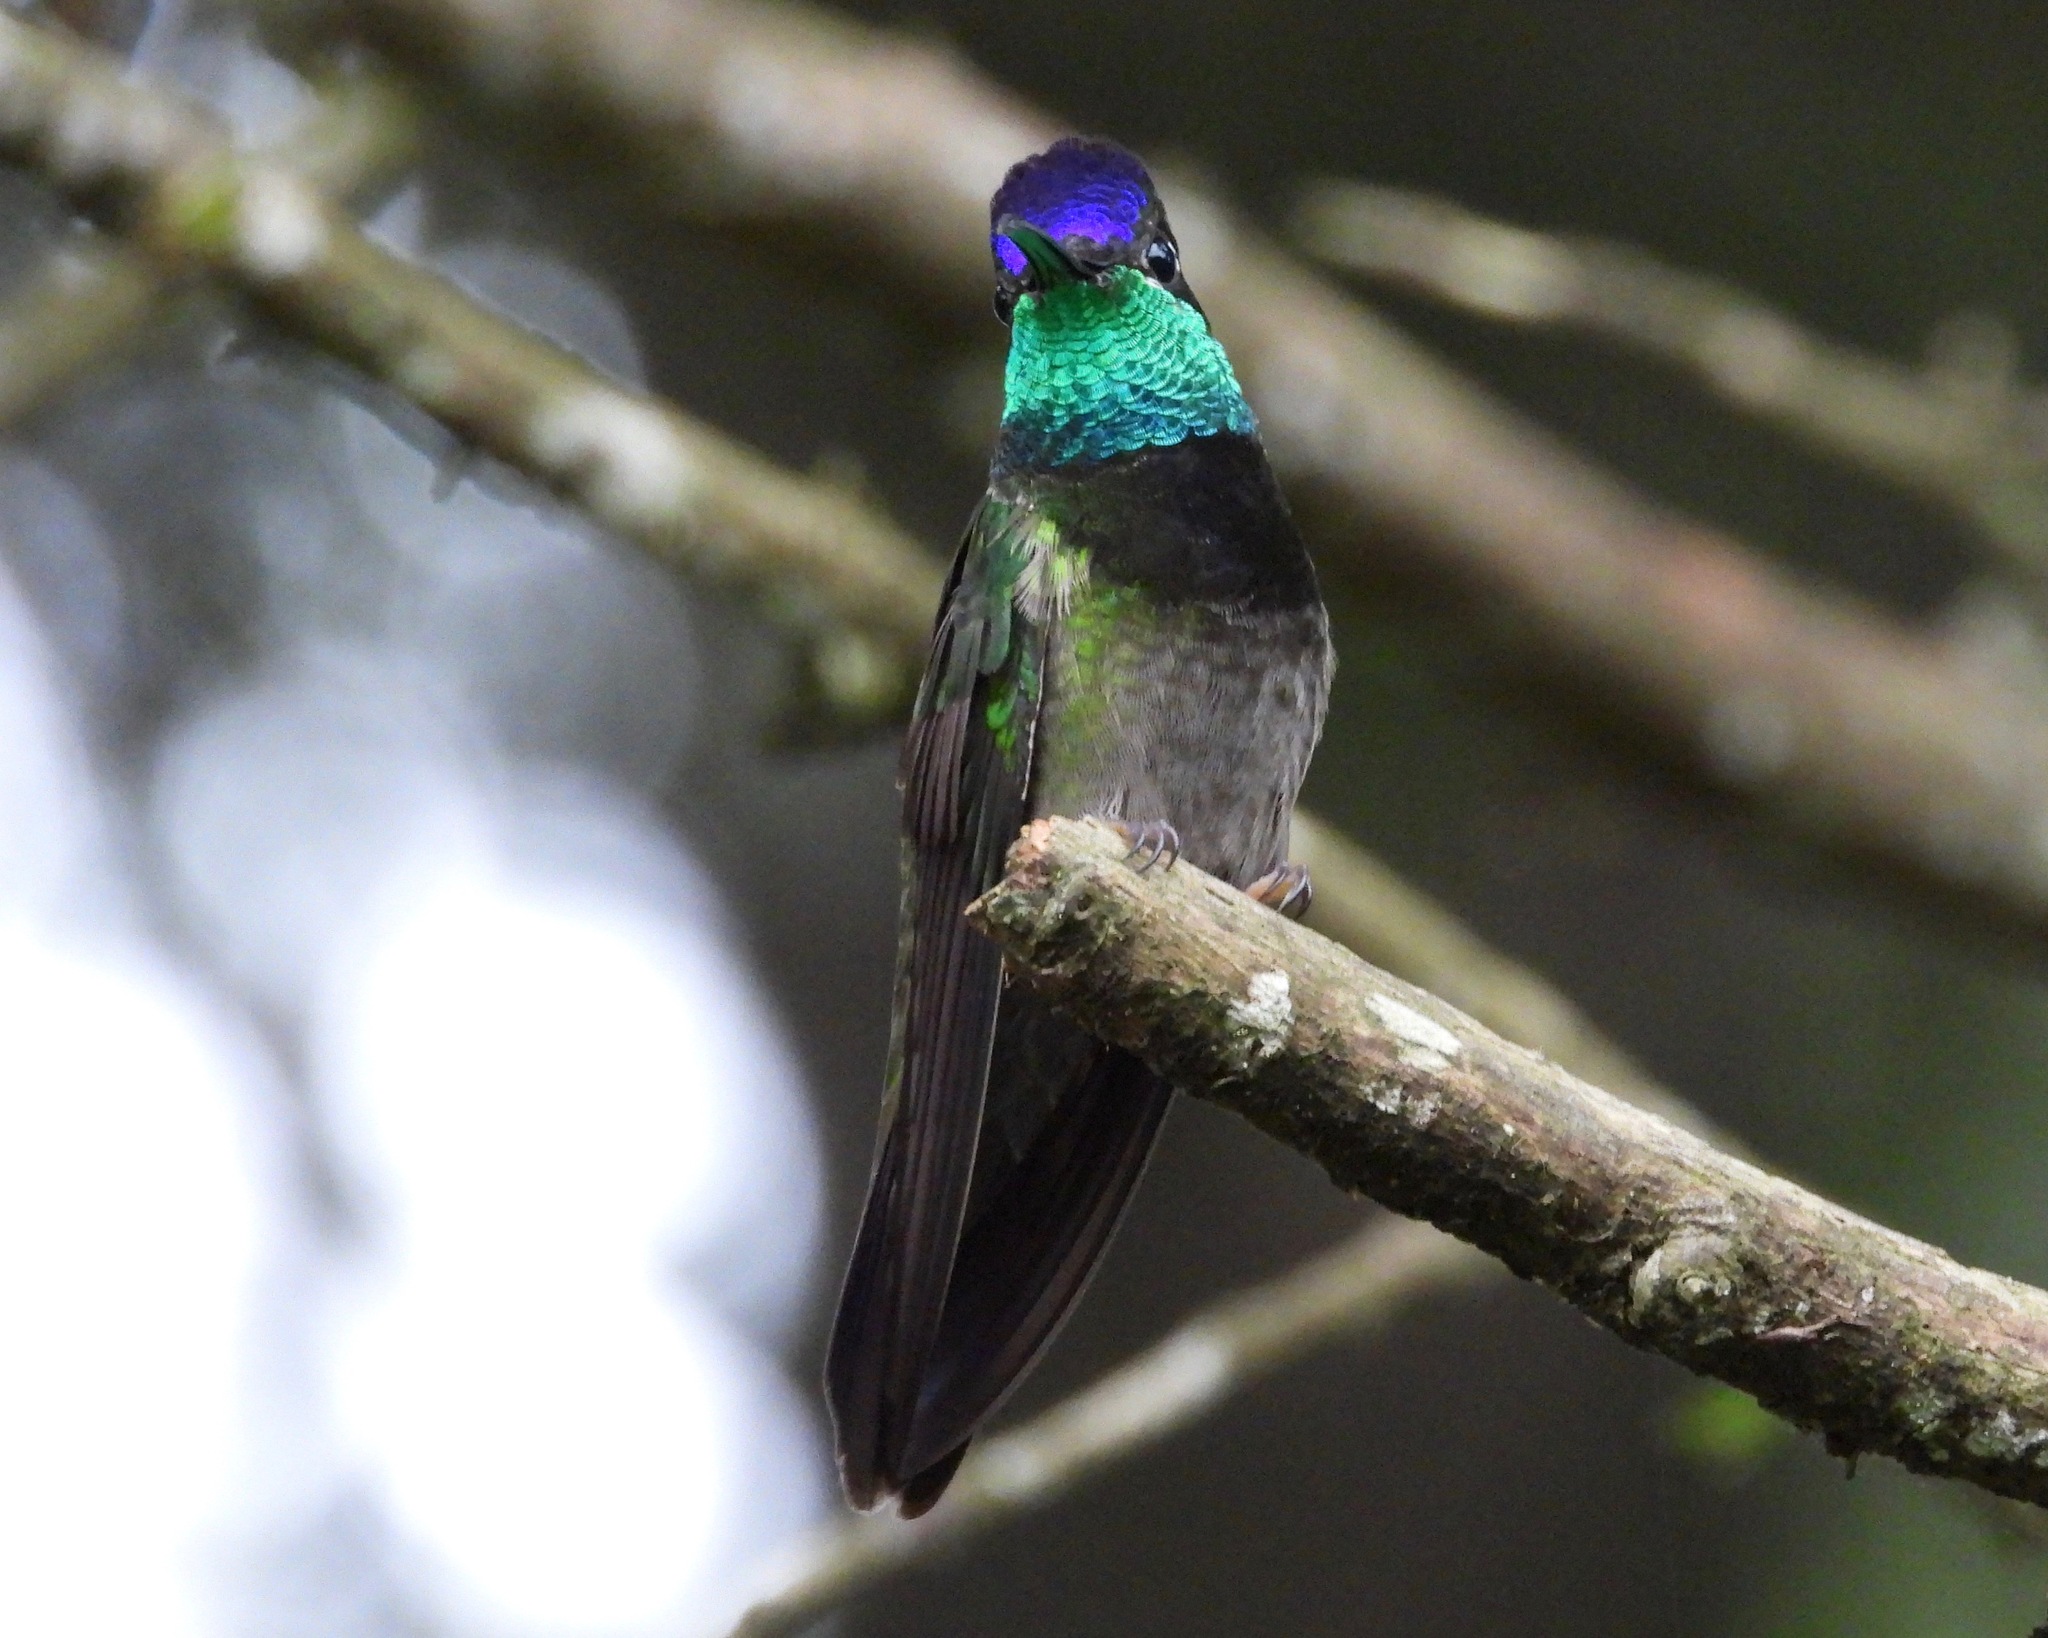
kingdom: Animalia
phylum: Chordata
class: Aves
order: Apodiformes
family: Trochilidae
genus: Eugenes
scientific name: Eugenes fulgens
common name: Magnificent hummingbird
